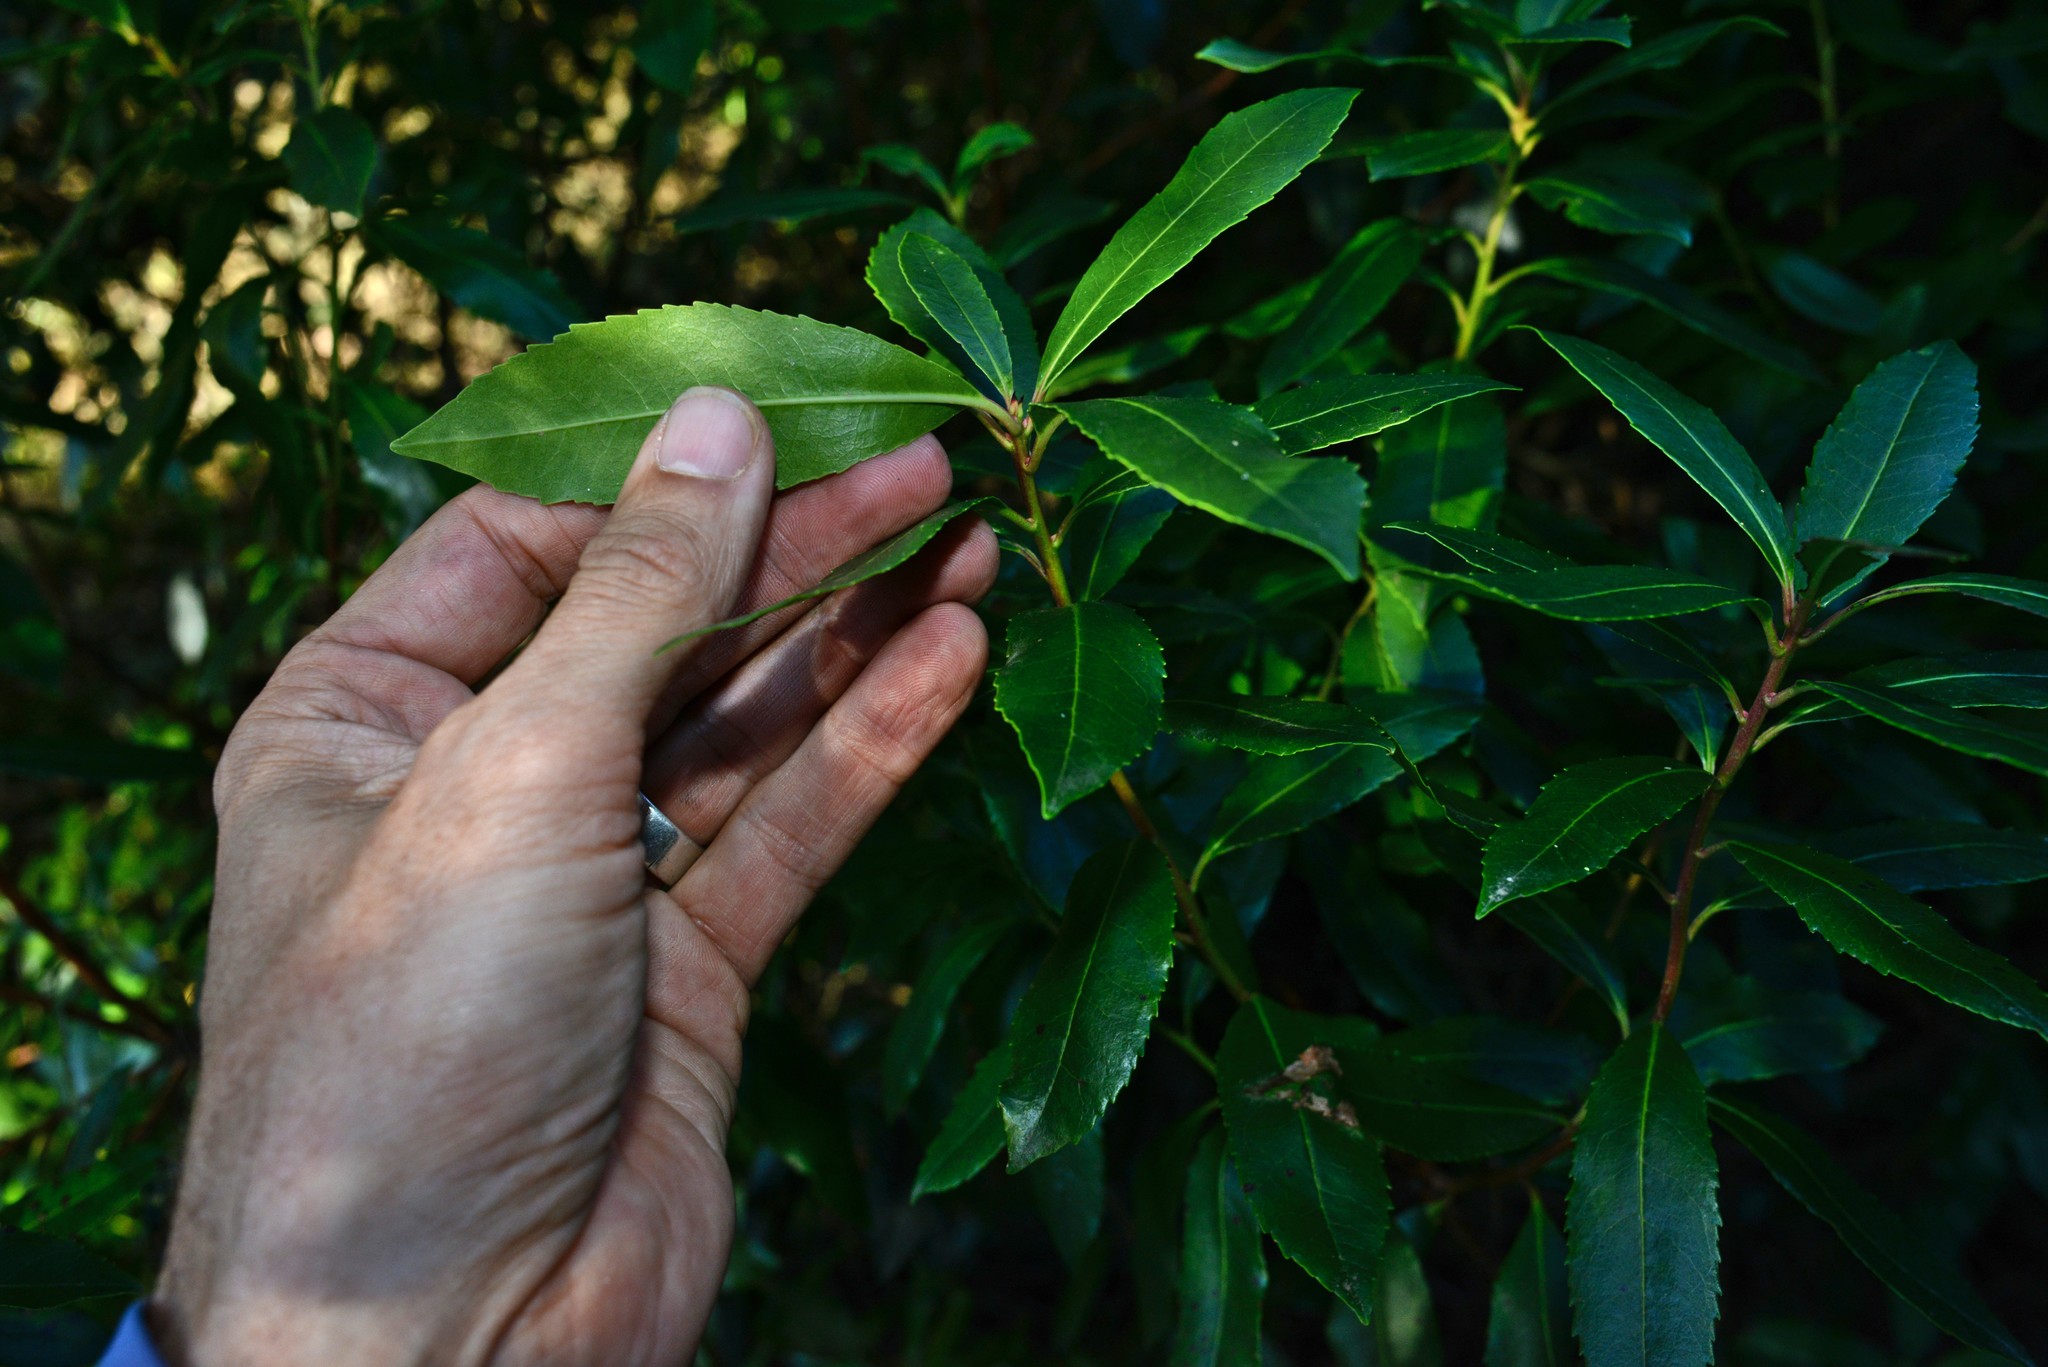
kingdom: Plantae
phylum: Tracheophyta
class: Magnoliopsida
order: Ericales
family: Ericaceae
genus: Arbutus
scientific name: Arbutus unedo
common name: Strawberry-tree
